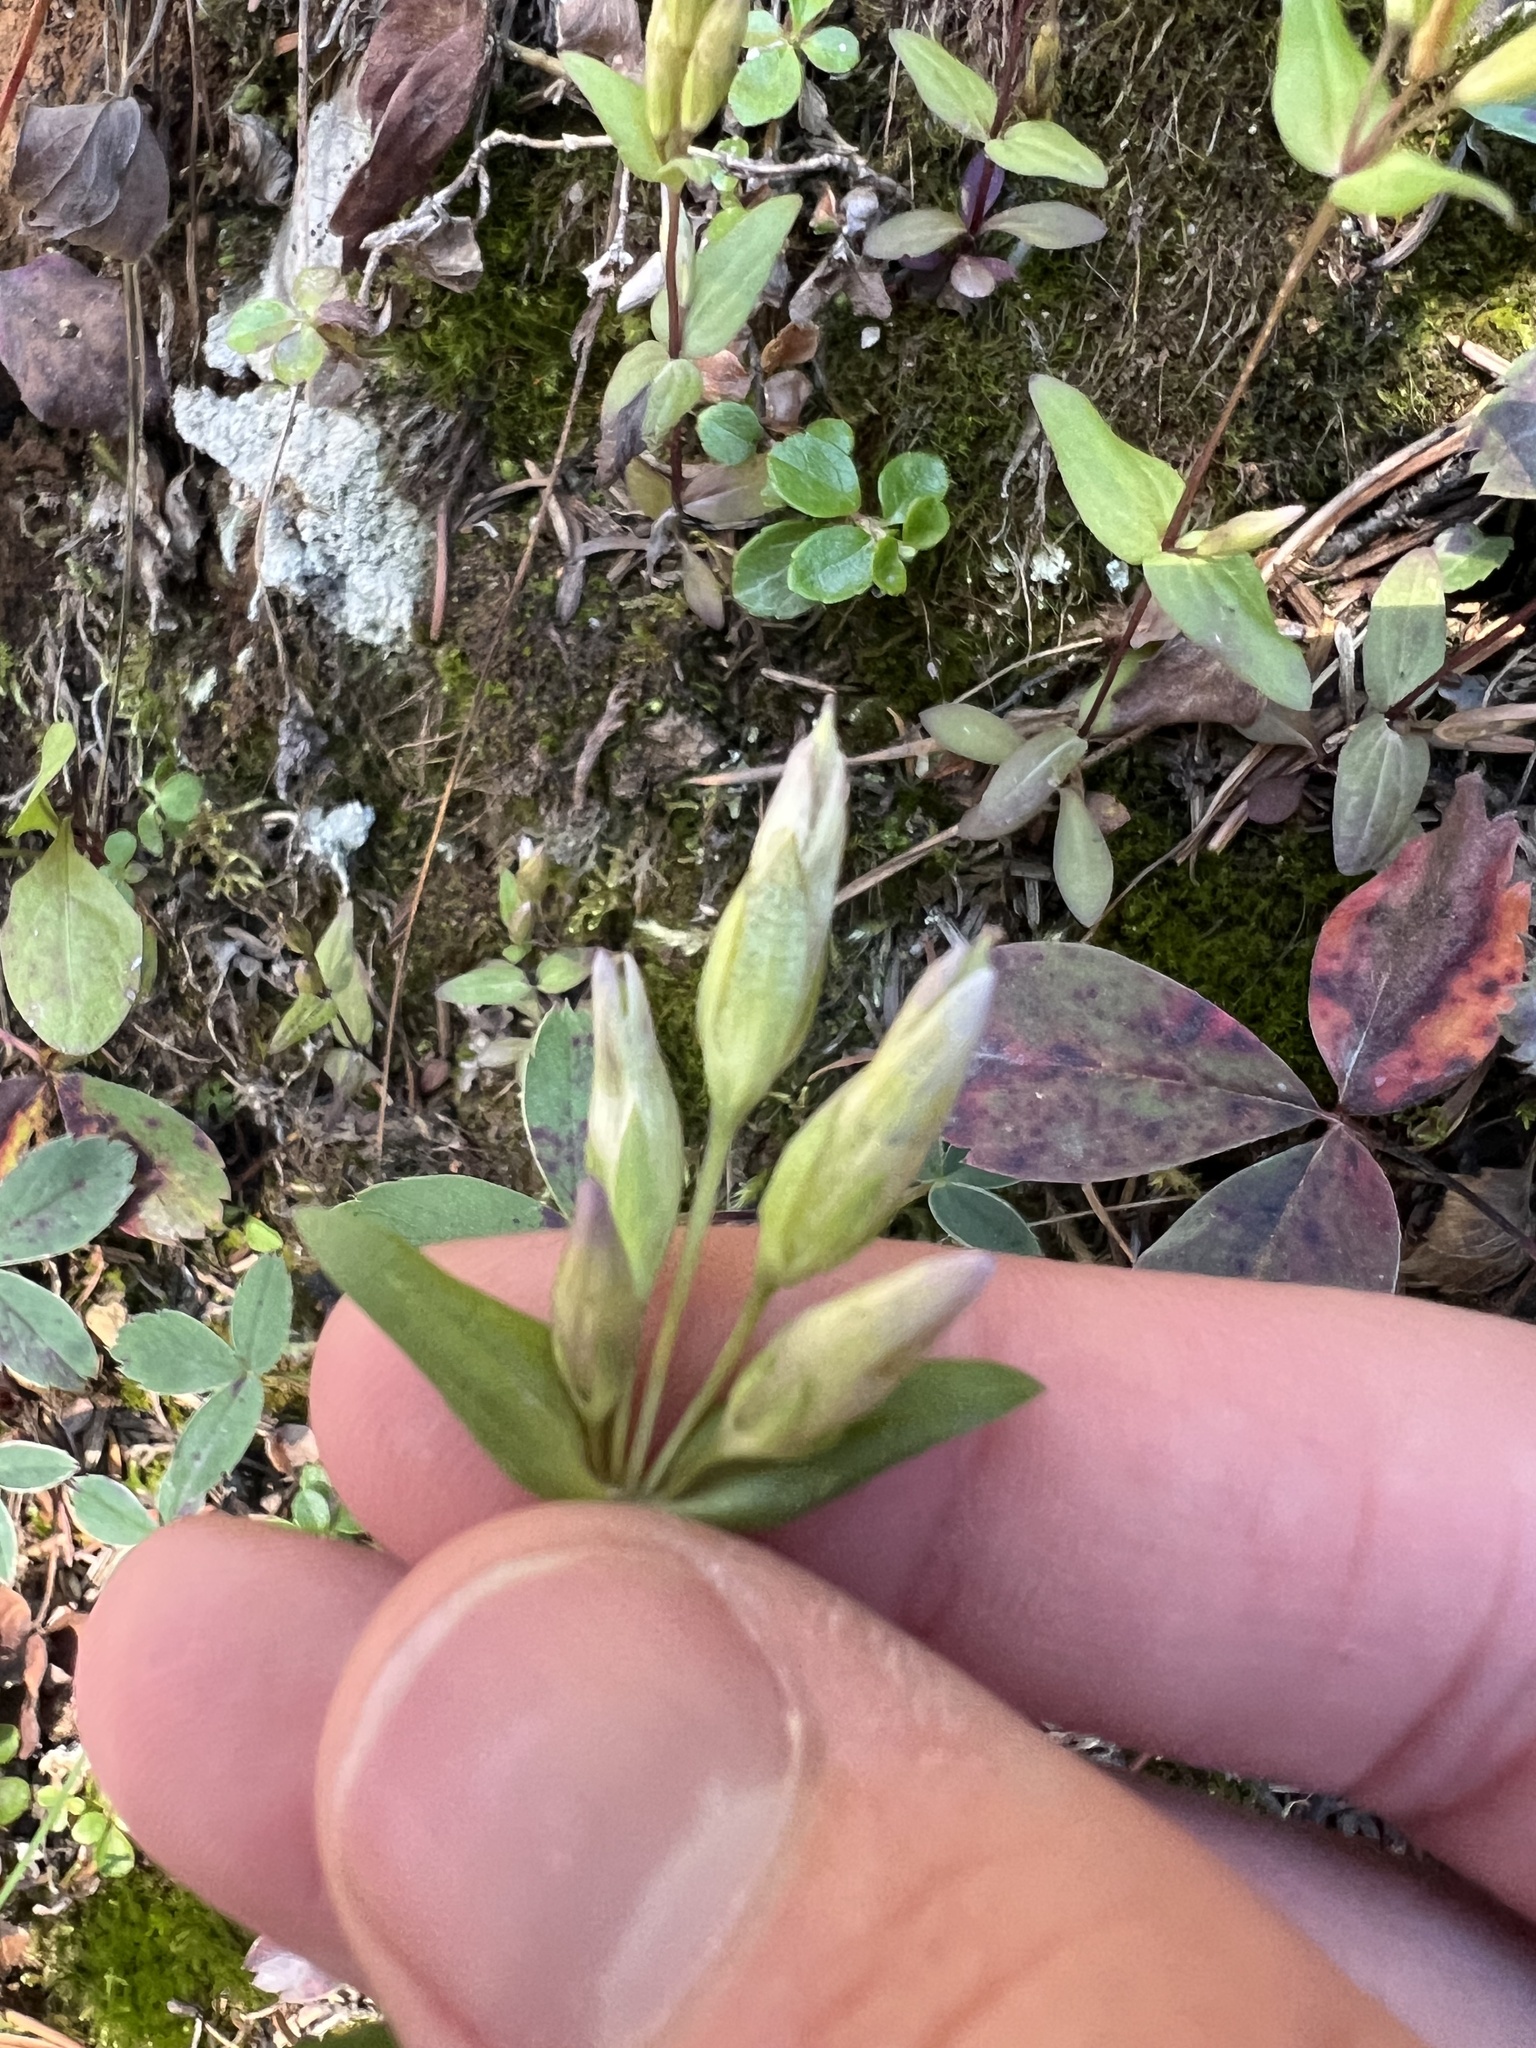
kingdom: Plantae
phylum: Tracheophyta
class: Magnoliopsida
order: Gentianales
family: Gentianaceae
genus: Gentianella
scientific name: Gentianella amarella
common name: Autumn gentian
